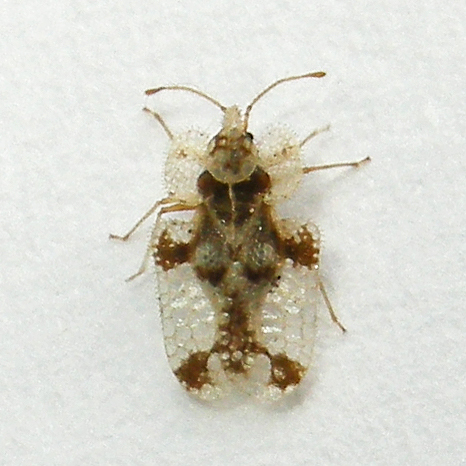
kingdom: Animalia
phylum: Arthropoda
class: Insecta
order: Hemiptera
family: Tingidae
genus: Corythucha
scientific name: Corythucha juglandis
